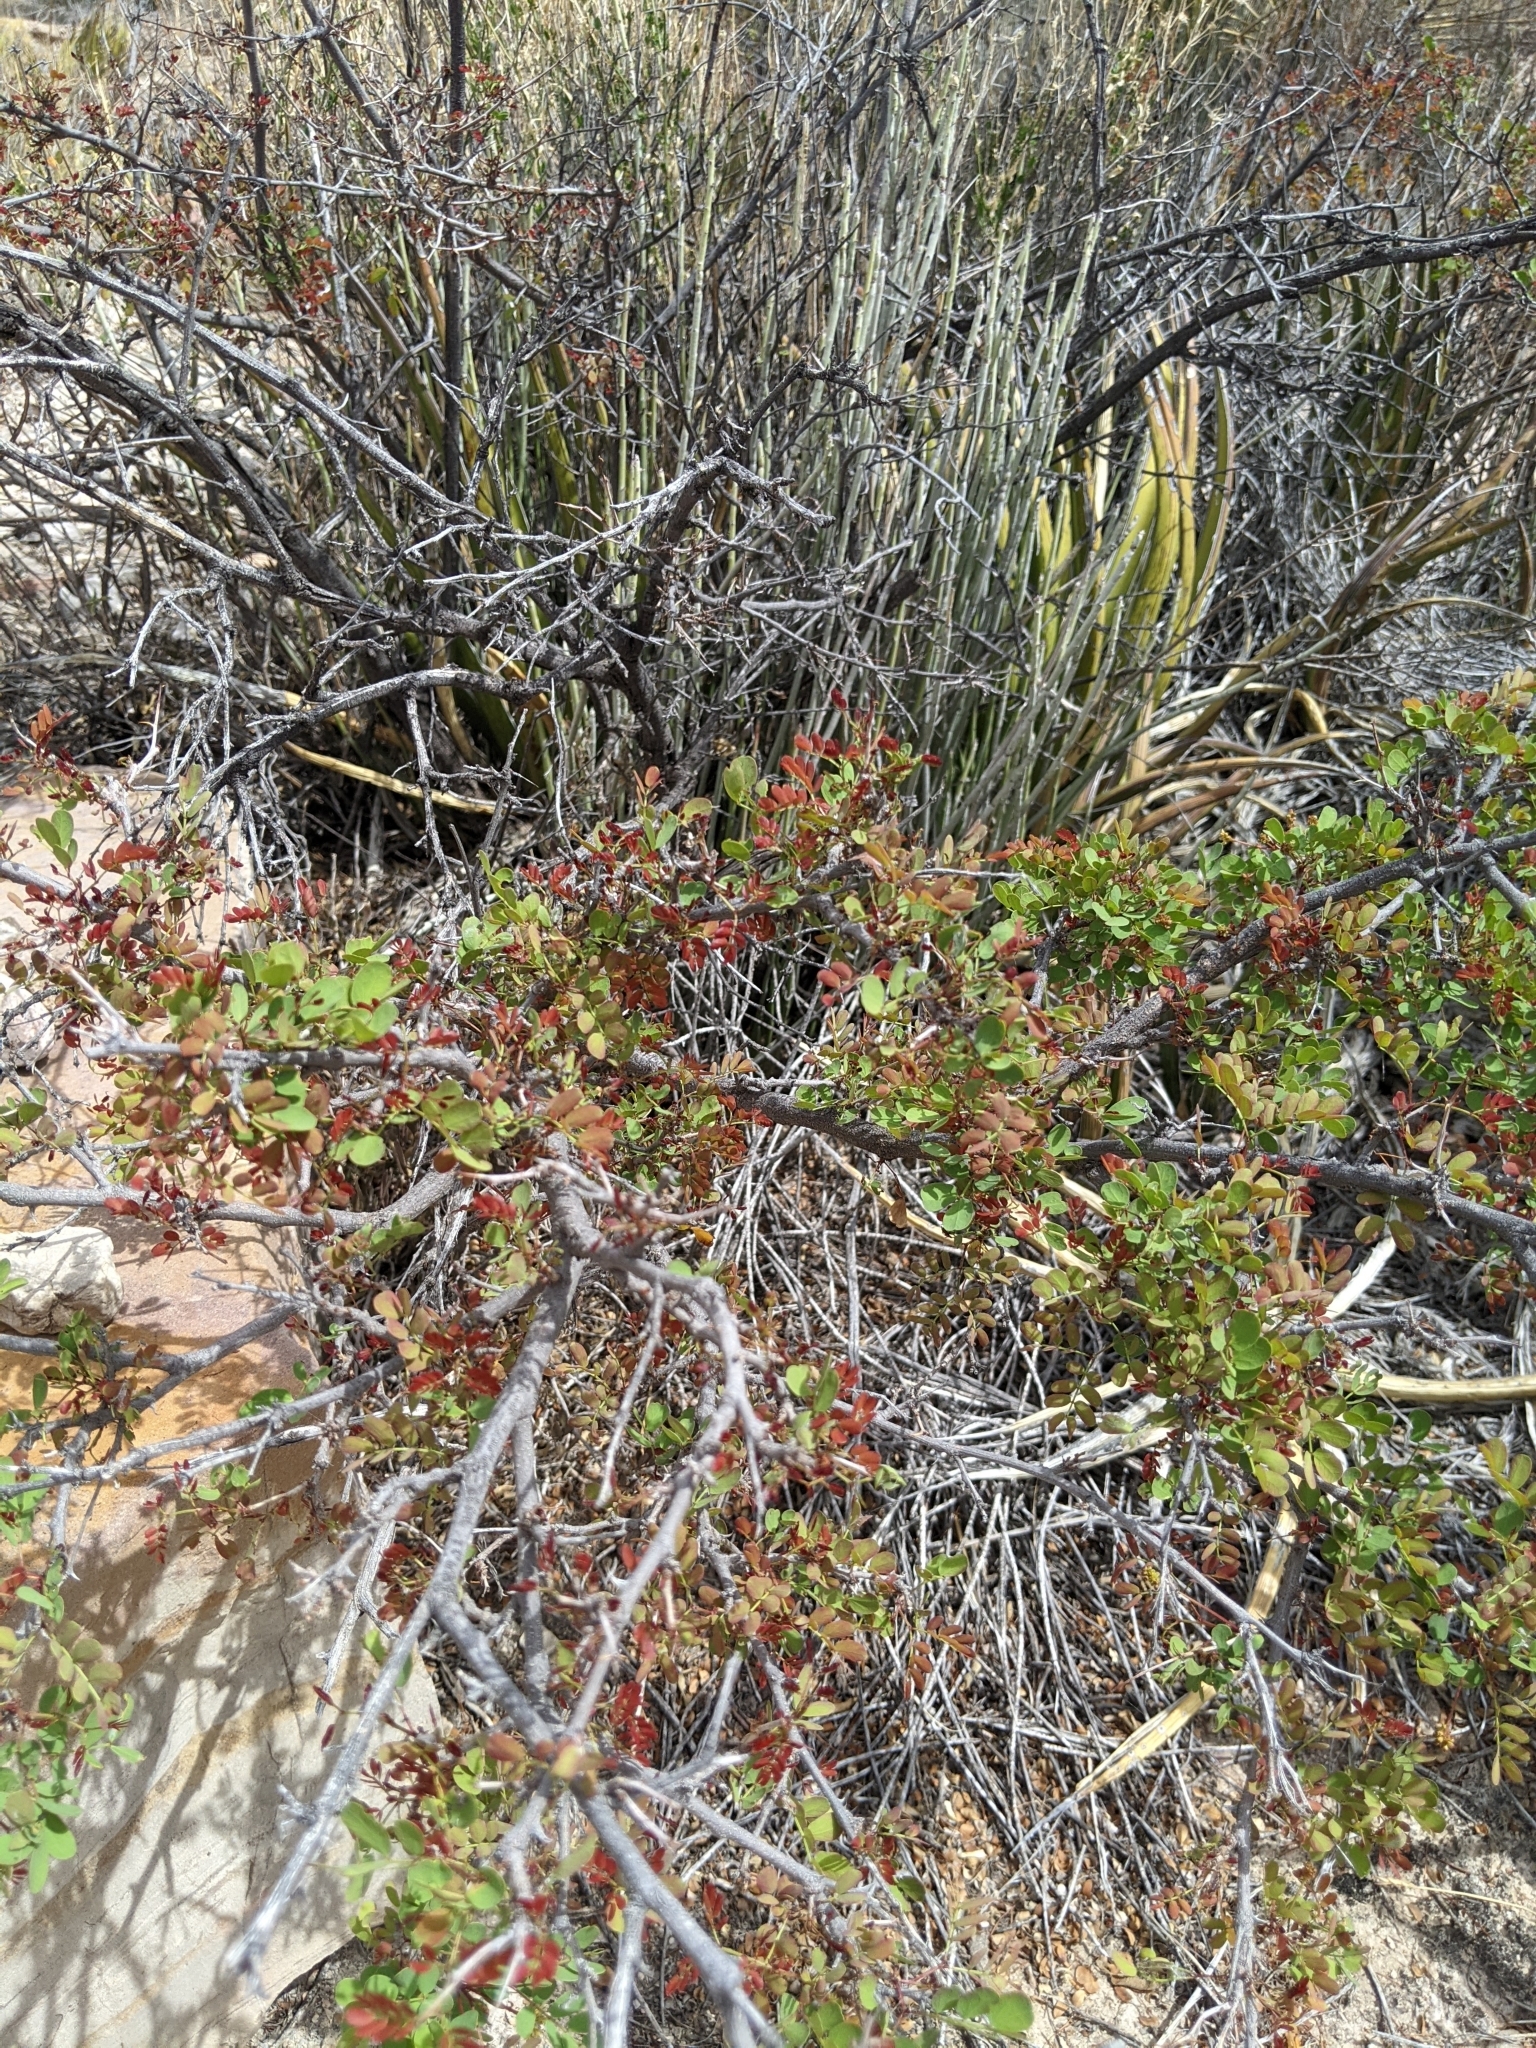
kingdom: Plantae
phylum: Tracheophyta
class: Magnoliopsida
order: Fabales
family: Fabaceae
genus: Senegalia
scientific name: Senegalia roemeriana
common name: Roemer's acacia
